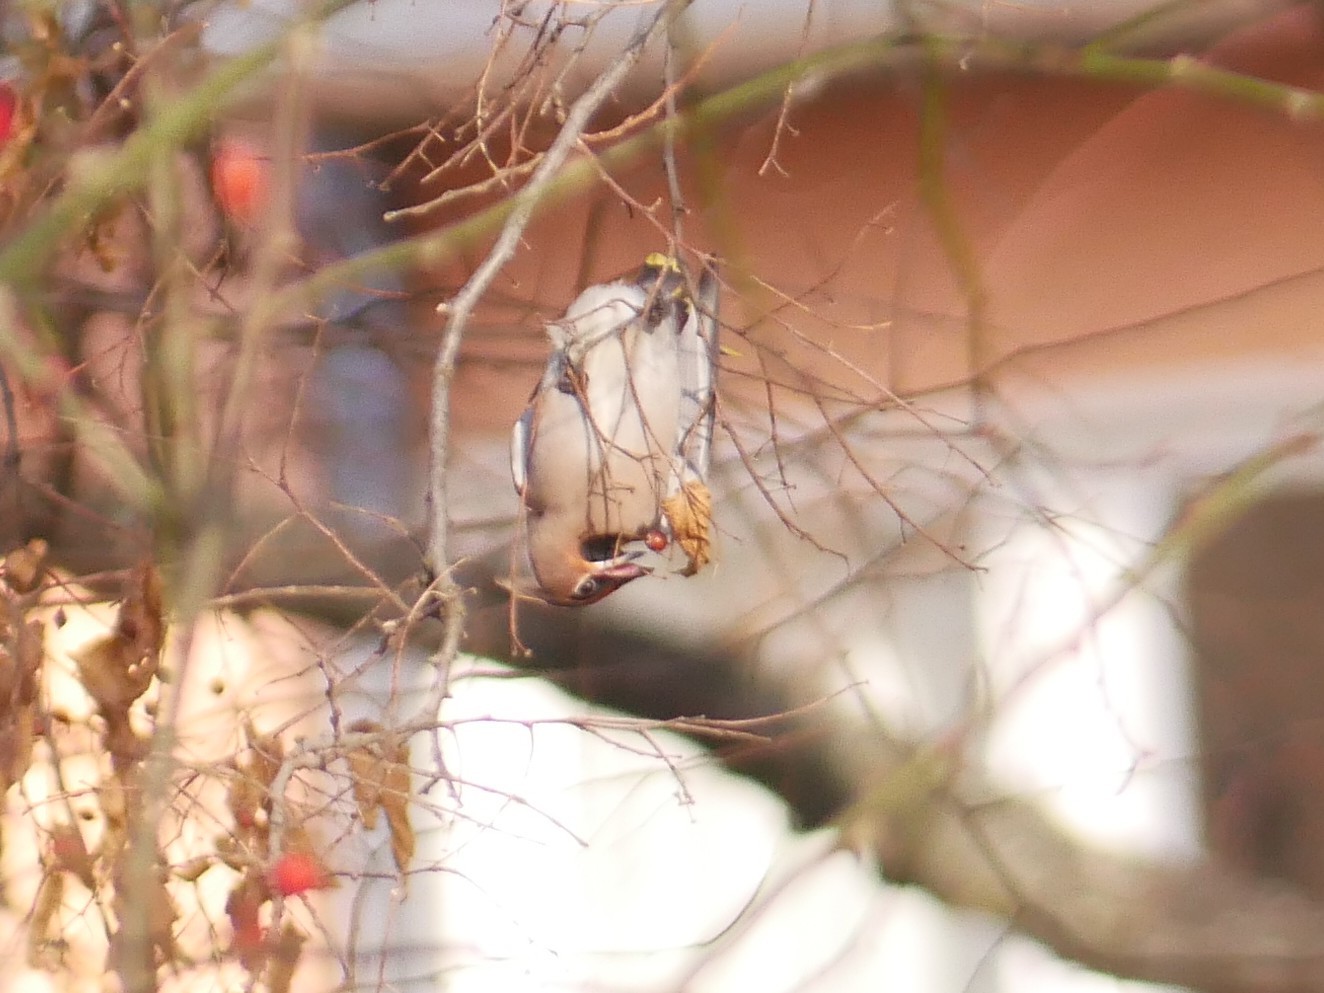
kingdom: Animalia
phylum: Chordata
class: Aves
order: Passeriformes
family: Bombycillidae
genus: Bombycilla
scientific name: Bombycilla garrulus
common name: Bohemian waxwing
